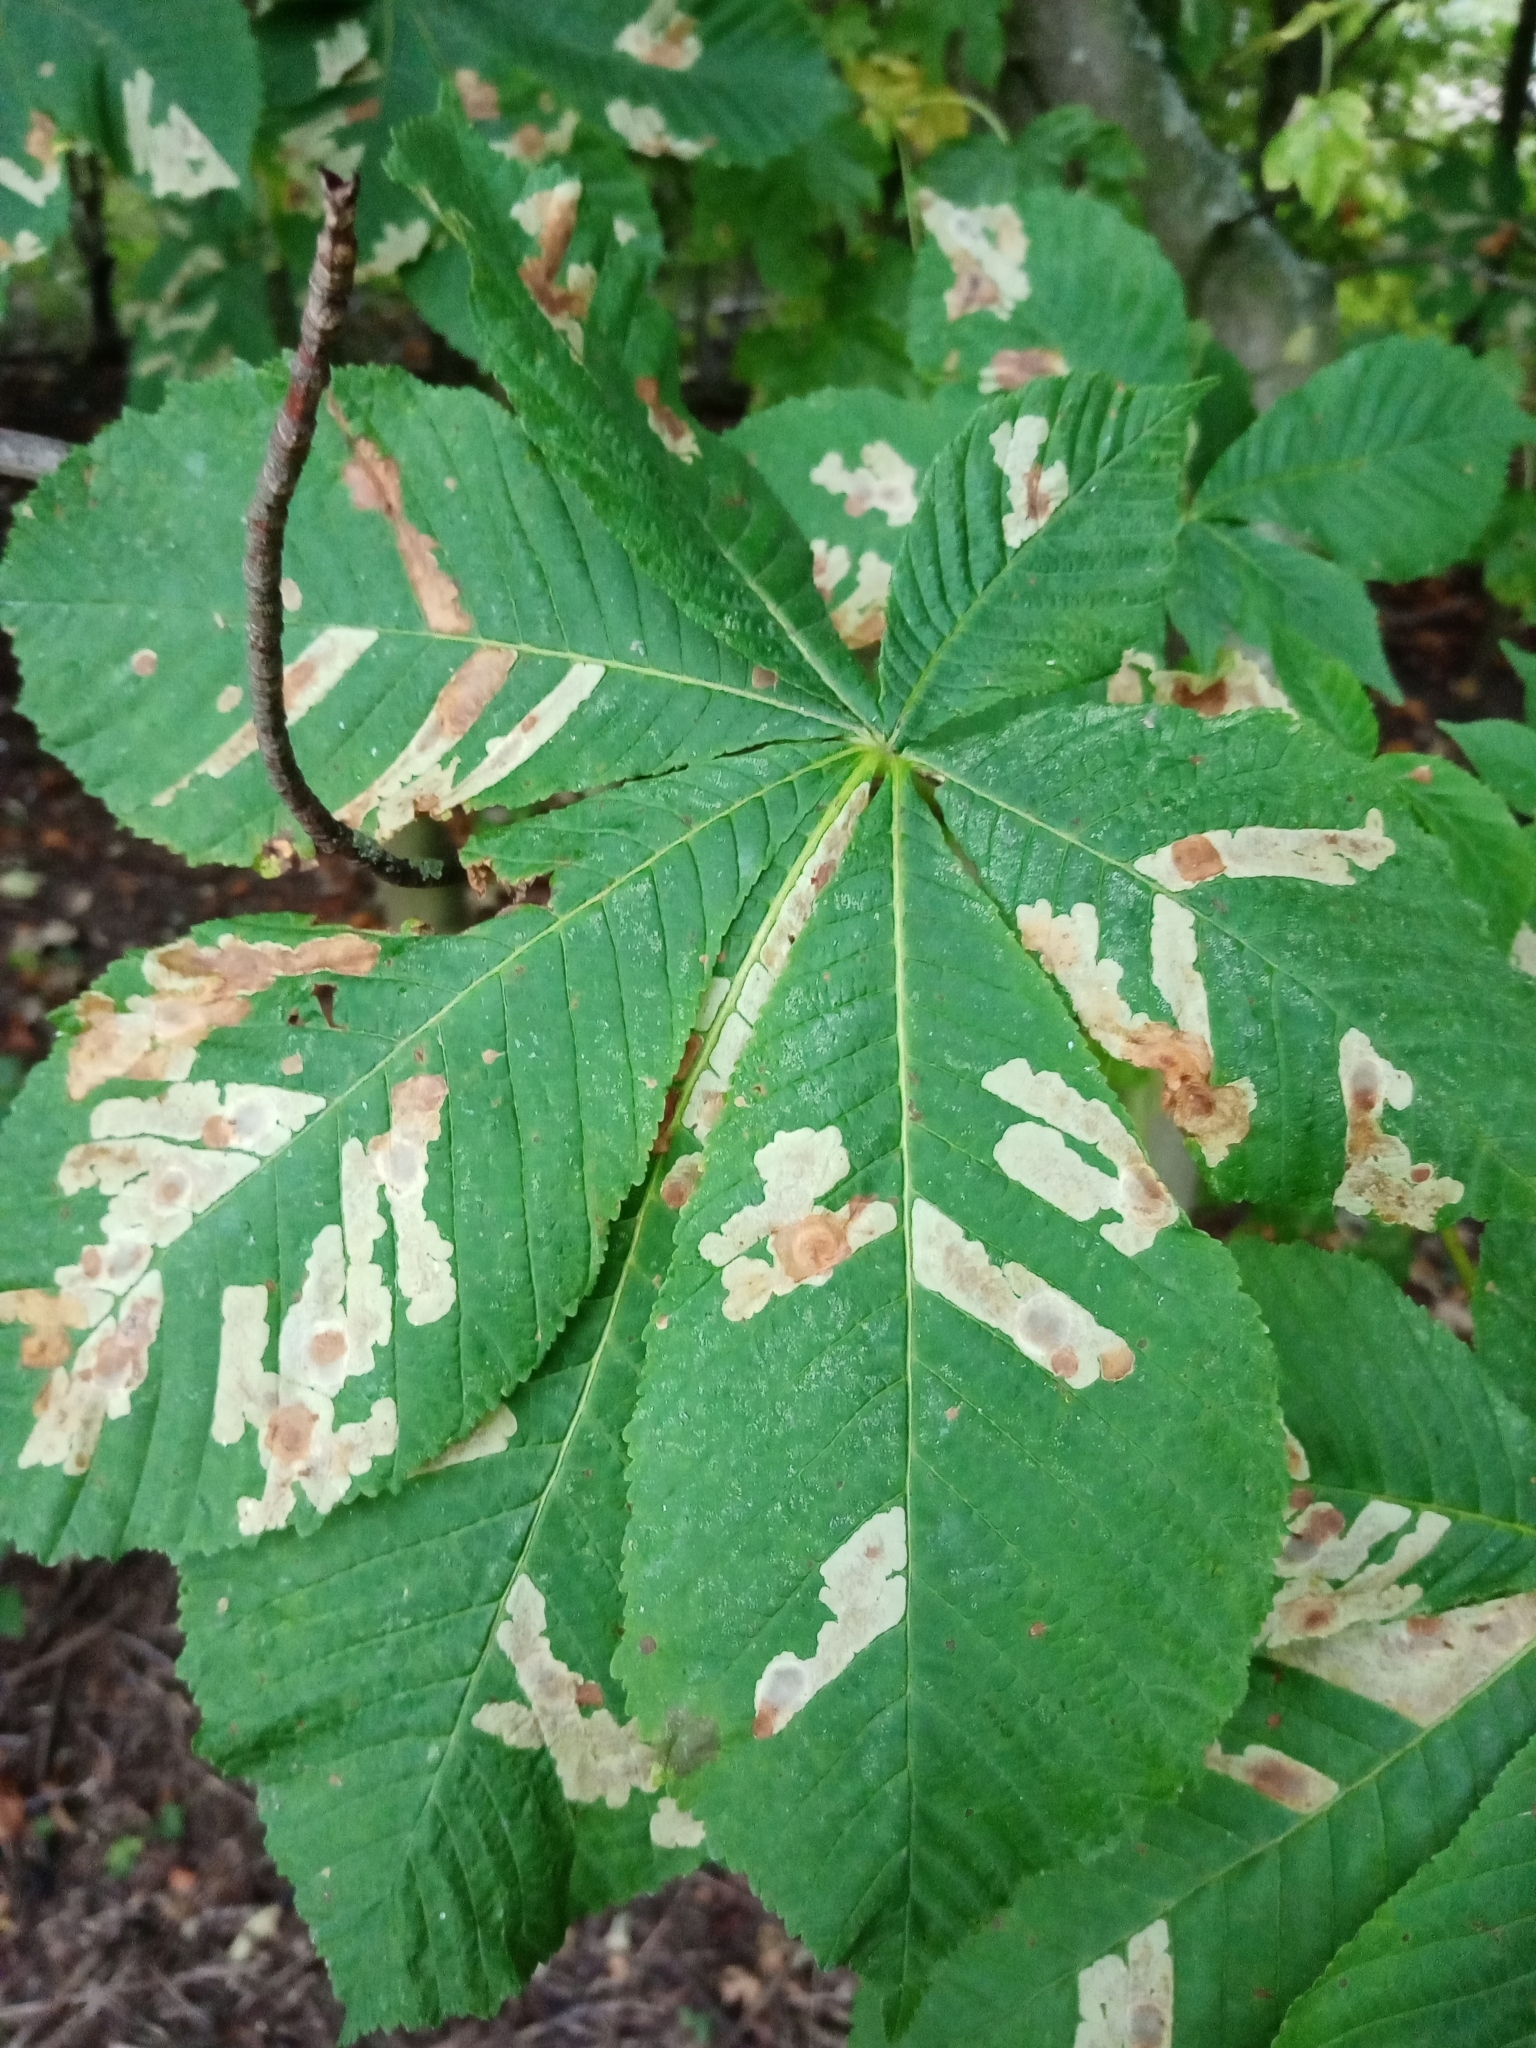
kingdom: Animalia
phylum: Arthropoda
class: Insecta
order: Lepidoptera
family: Gracillariidae
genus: Cameraria
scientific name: Cameraria ohridella
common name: Horse-chestnut leaf-miner
